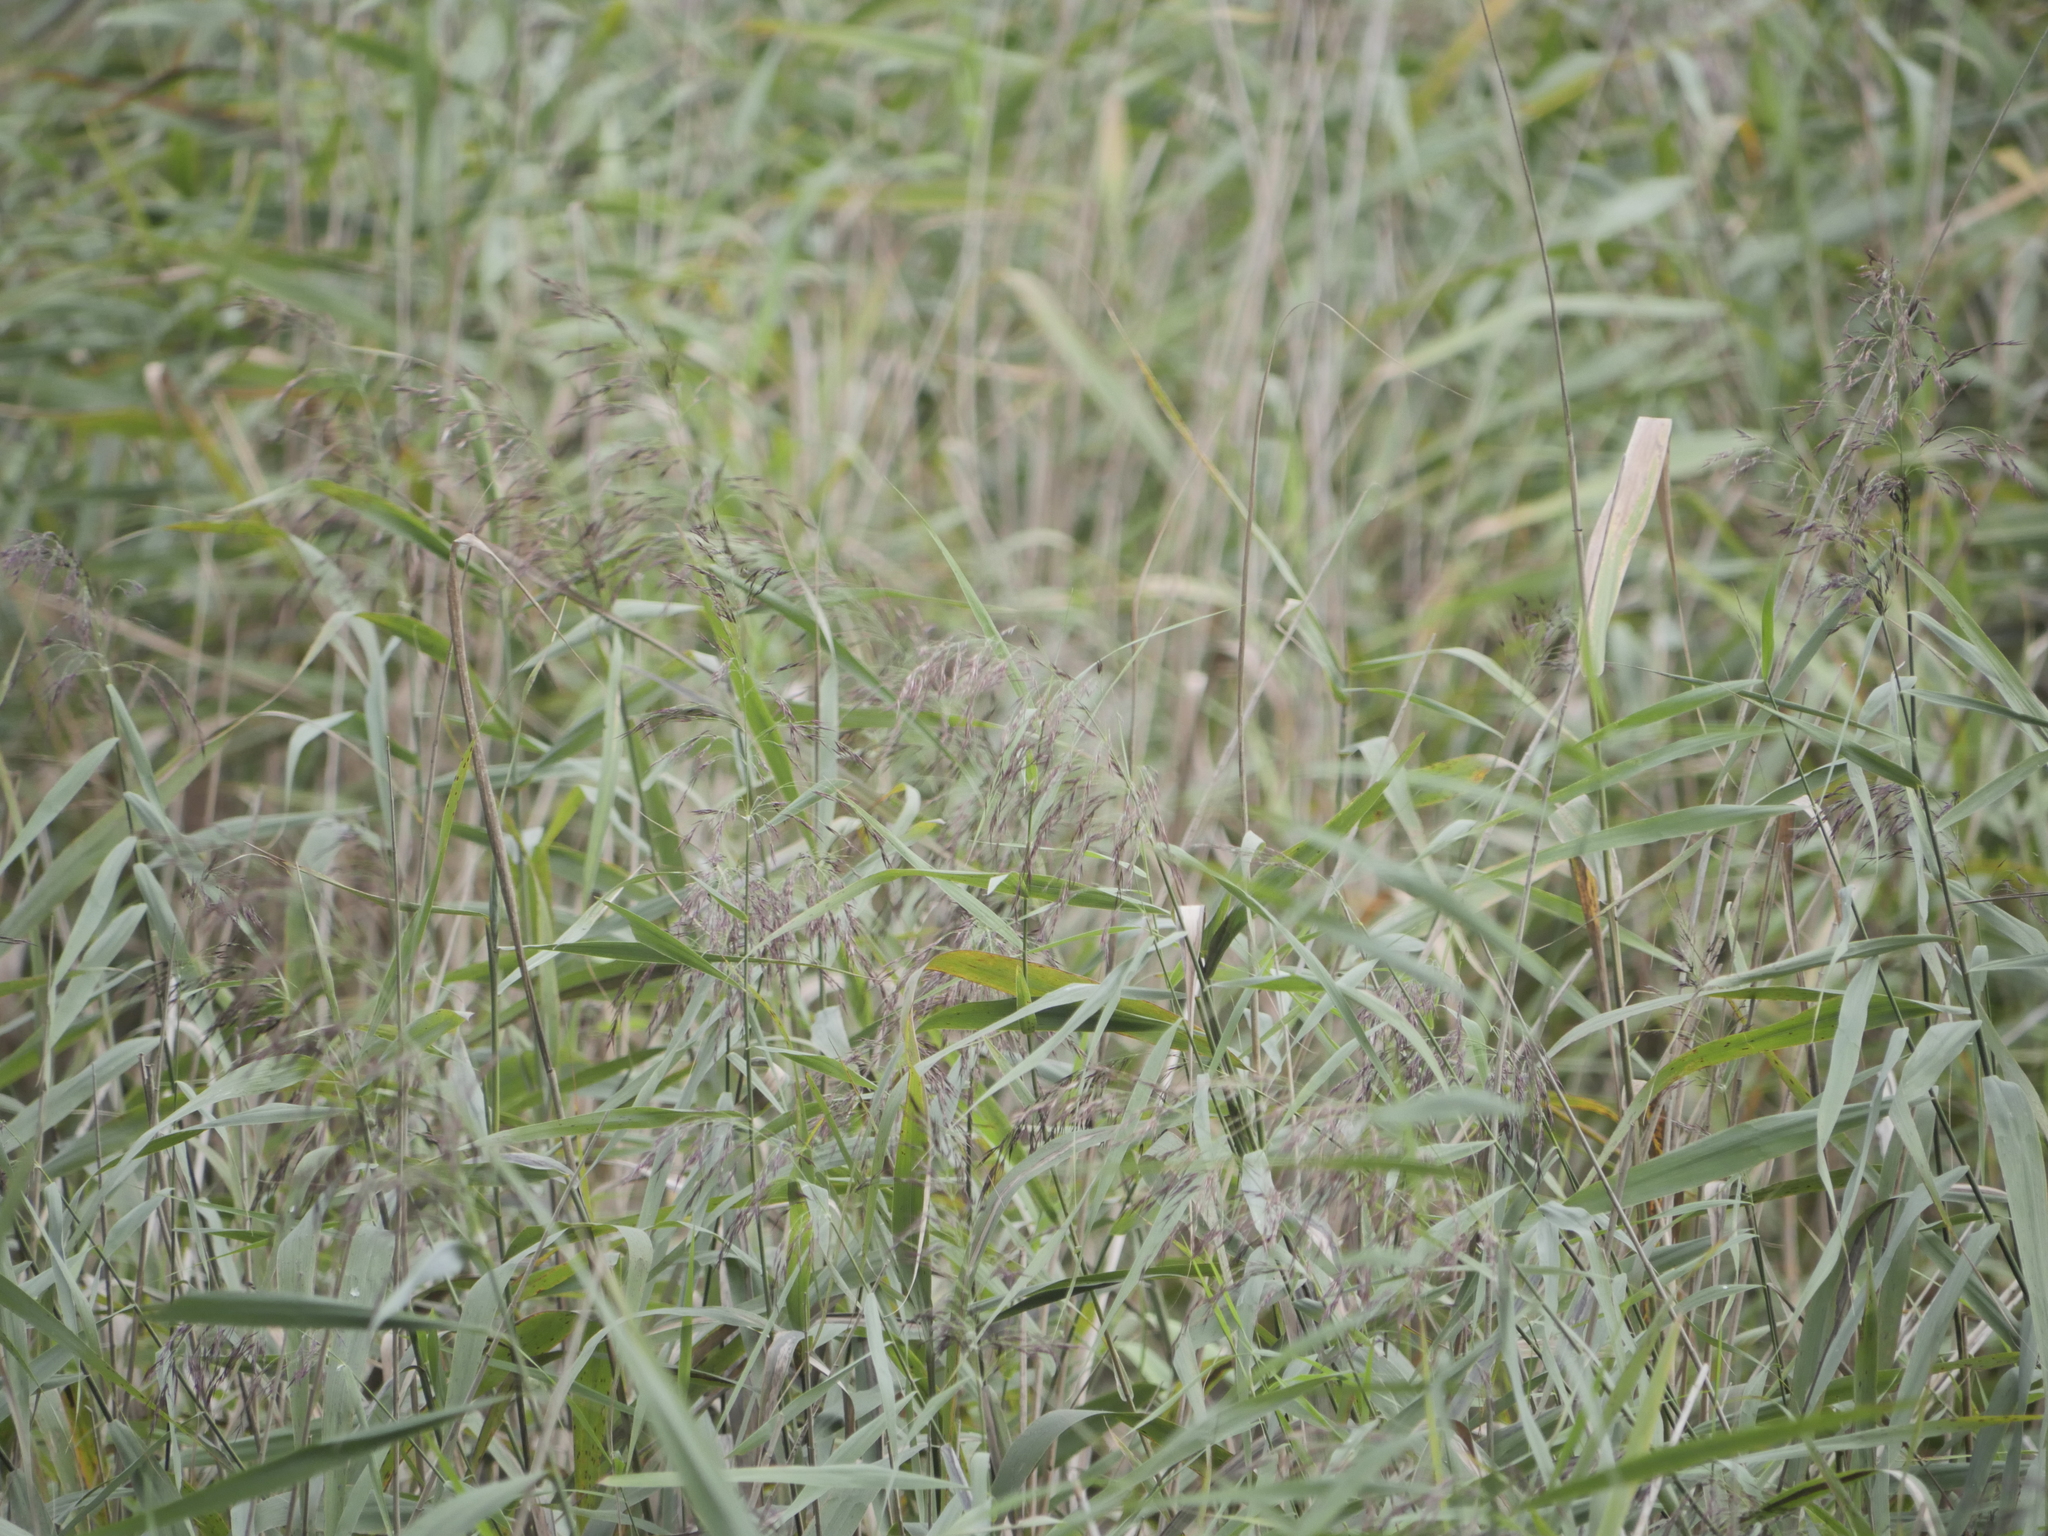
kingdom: Plantae
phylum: Tracheophyta
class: Liliopsida
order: Poales
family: Poaceae
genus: Phragmites
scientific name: Phragmites australis
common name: Common reed
